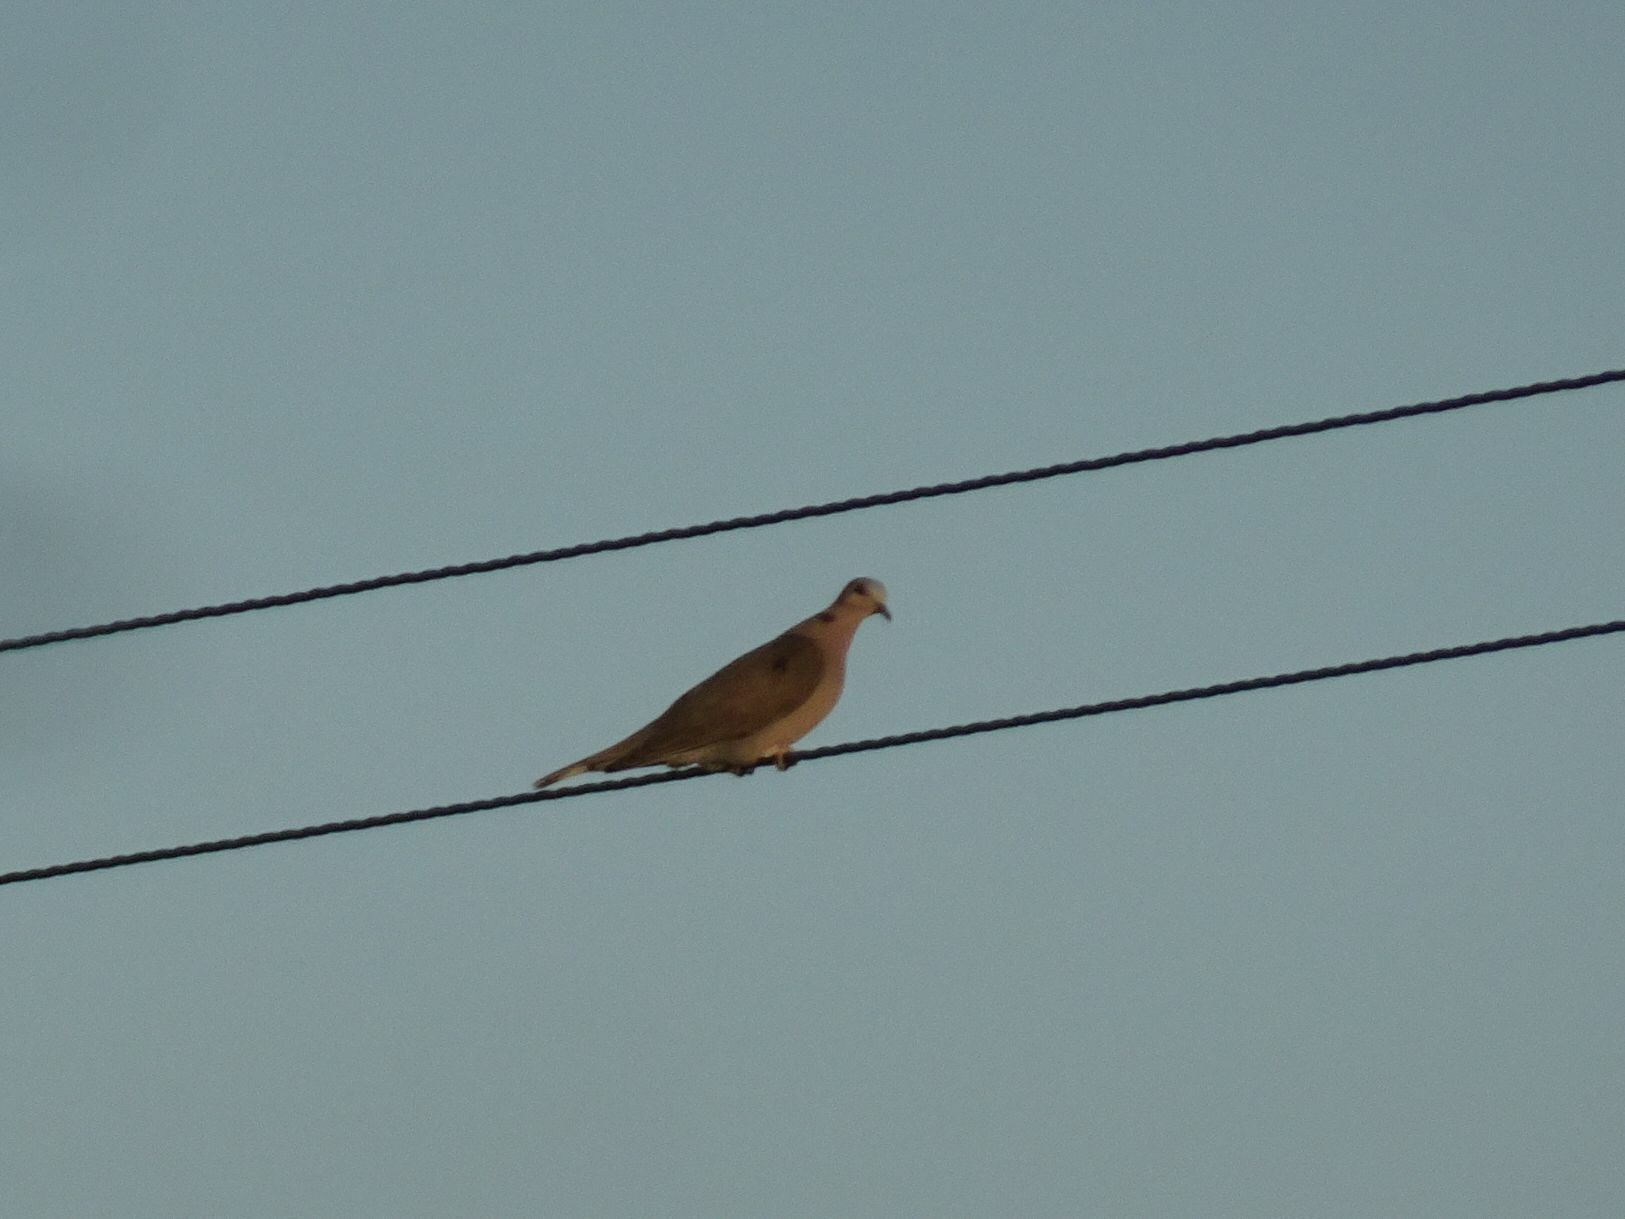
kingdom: Animalia
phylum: Chordata
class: Aves
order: Columbiformes
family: Columbidae
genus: Streptopelia
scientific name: Streptopelia semitorquata
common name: Red-eyed dove
